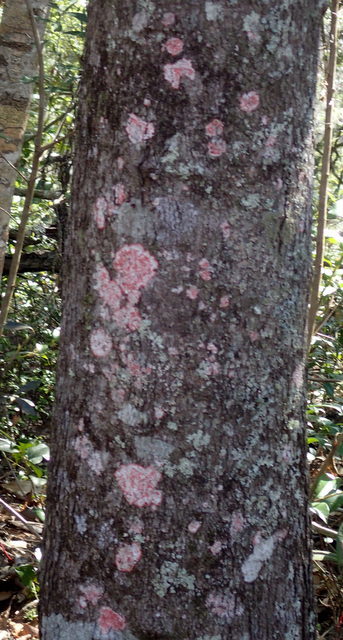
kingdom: Fungi
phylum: Ascomycota
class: Arthoniomycetes
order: Arthoniales
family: Arthoniaceae
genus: Herpothallon
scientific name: Herpothallon rubrocinctum
